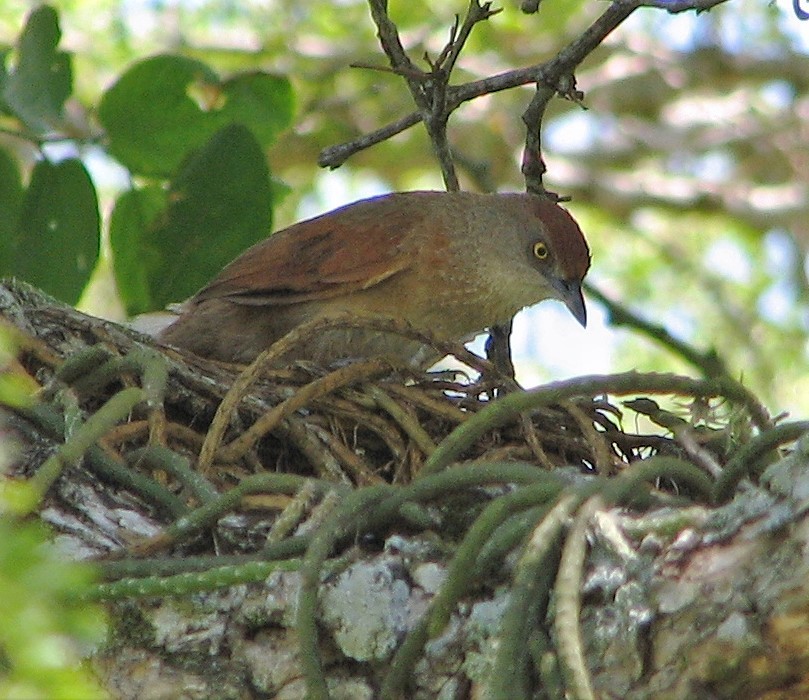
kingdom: Animalia
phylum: Chordata
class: Aves
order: Passeriformes
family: Furnariidae
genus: Phacellodomus
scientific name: Phacellodomus ruber
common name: Greater thornbird
